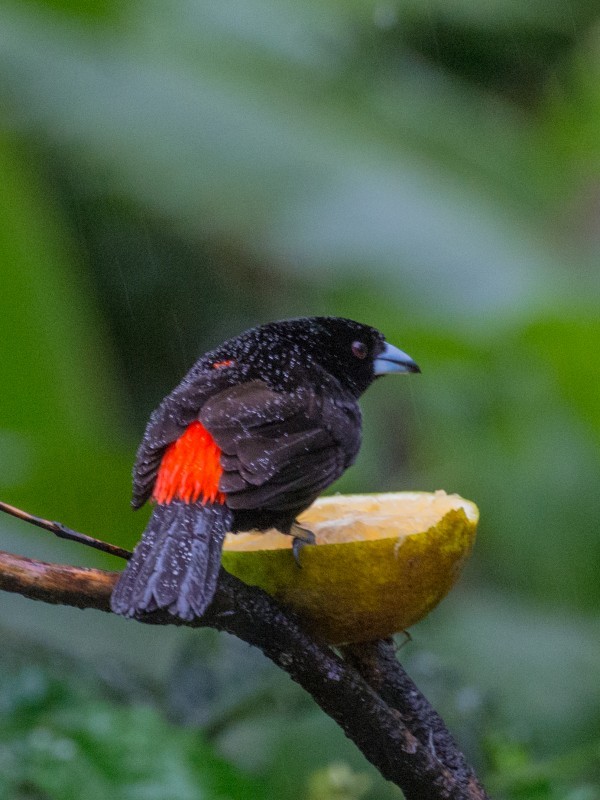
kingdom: Animalia
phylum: Chordata
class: Aves
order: Passeriformes
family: Thraupidae
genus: Ramphocelus
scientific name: Ramphocelus passerinii
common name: Passerini's tanager
